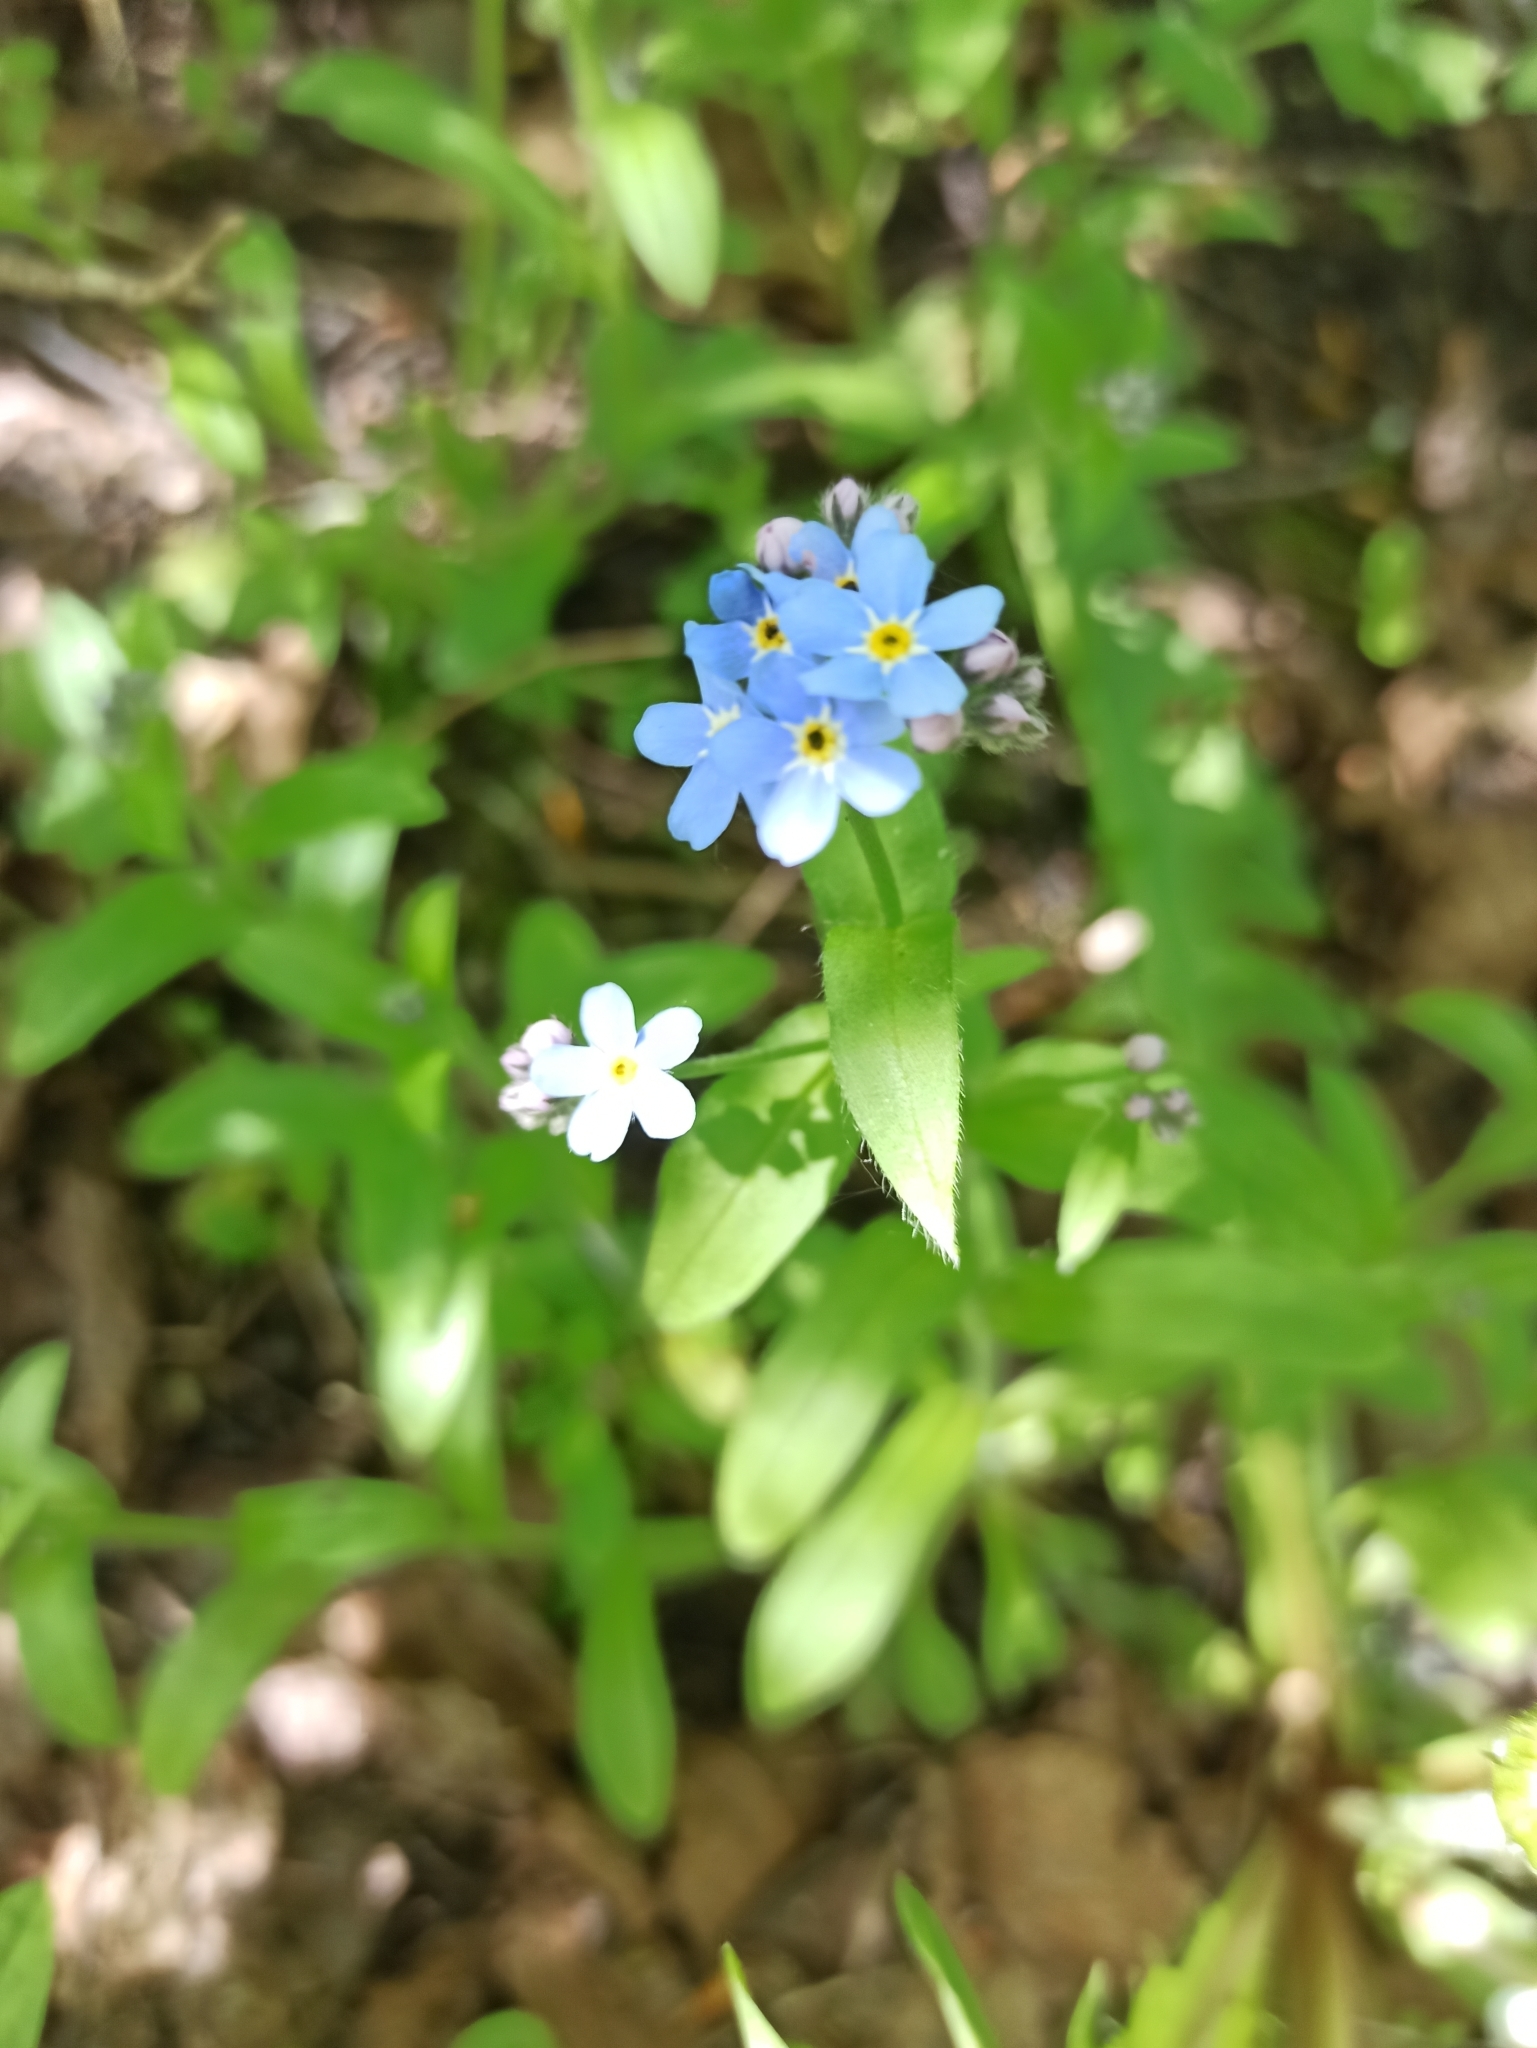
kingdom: Plantae
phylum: Tracheophyta
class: Magnoliopsida
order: Boraginales
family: Boraginaceae
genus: Myosotis
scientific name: Myosotis sylvatica
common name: Wood forget-me-not
